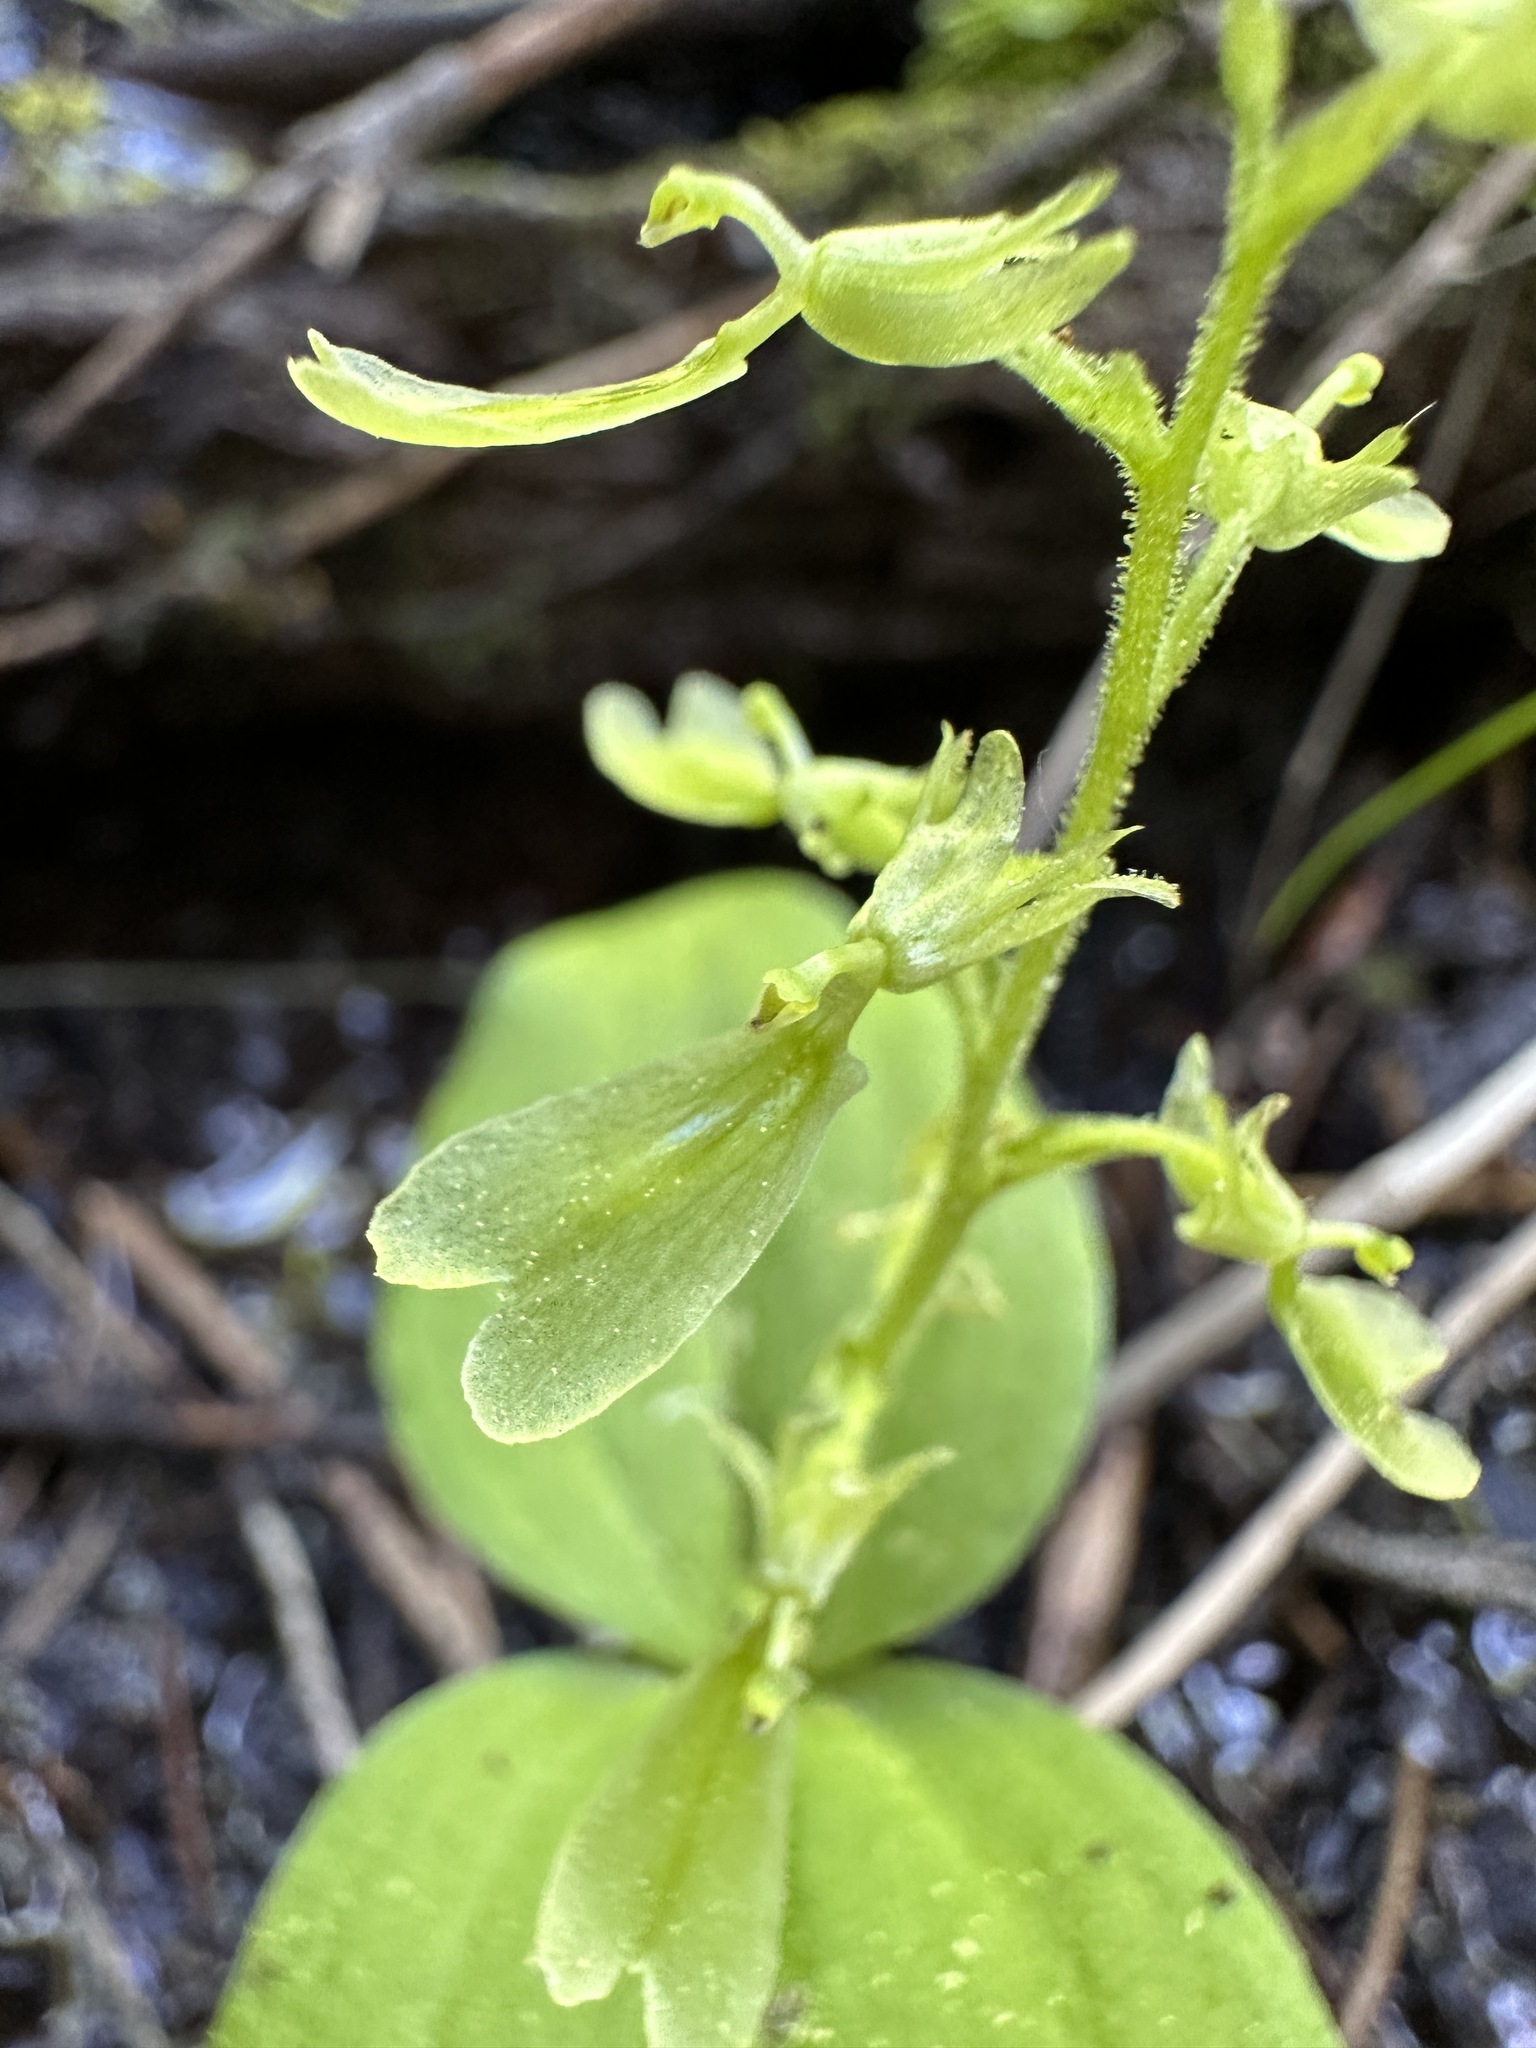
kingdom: Plantae
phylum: Tracheophyta
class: Liliopsida
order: Asparagales
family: Orchidaceae
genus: Neottia
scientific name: Neottia convallarioides
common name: Broadleaf twayblade
